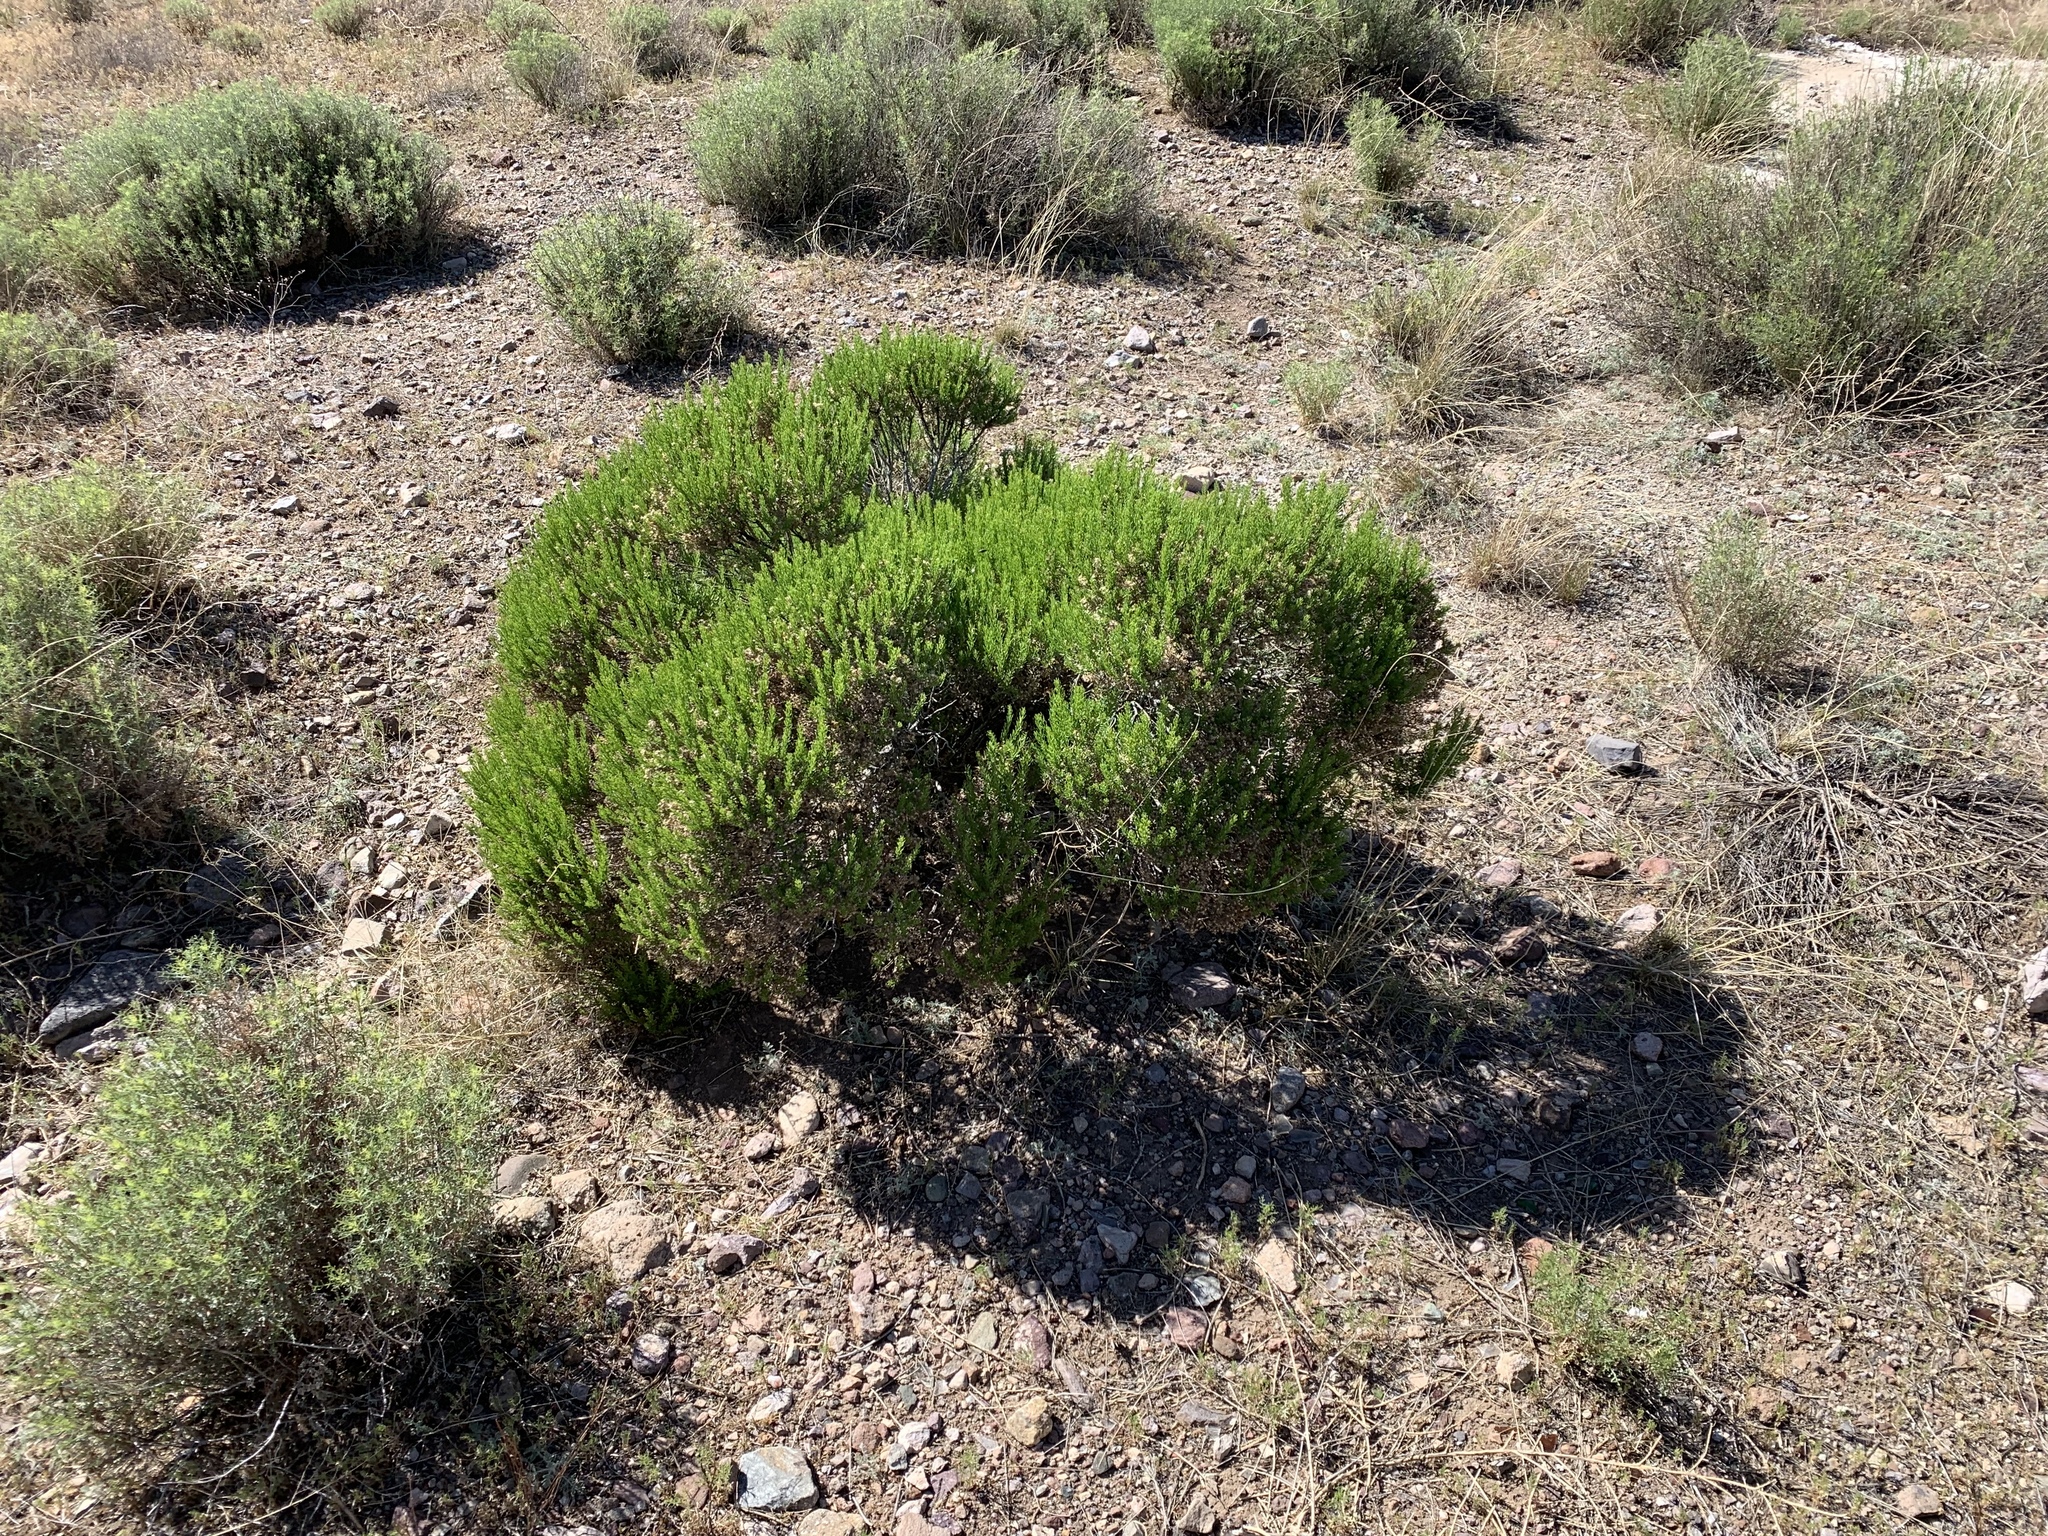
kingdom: Plantae
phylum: Tracheophyta
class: Magnoliopsida
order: Asterales
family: Asteraceae
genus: Ericameria
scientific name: Ericameria laricifolia
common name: Turpentine-bush
